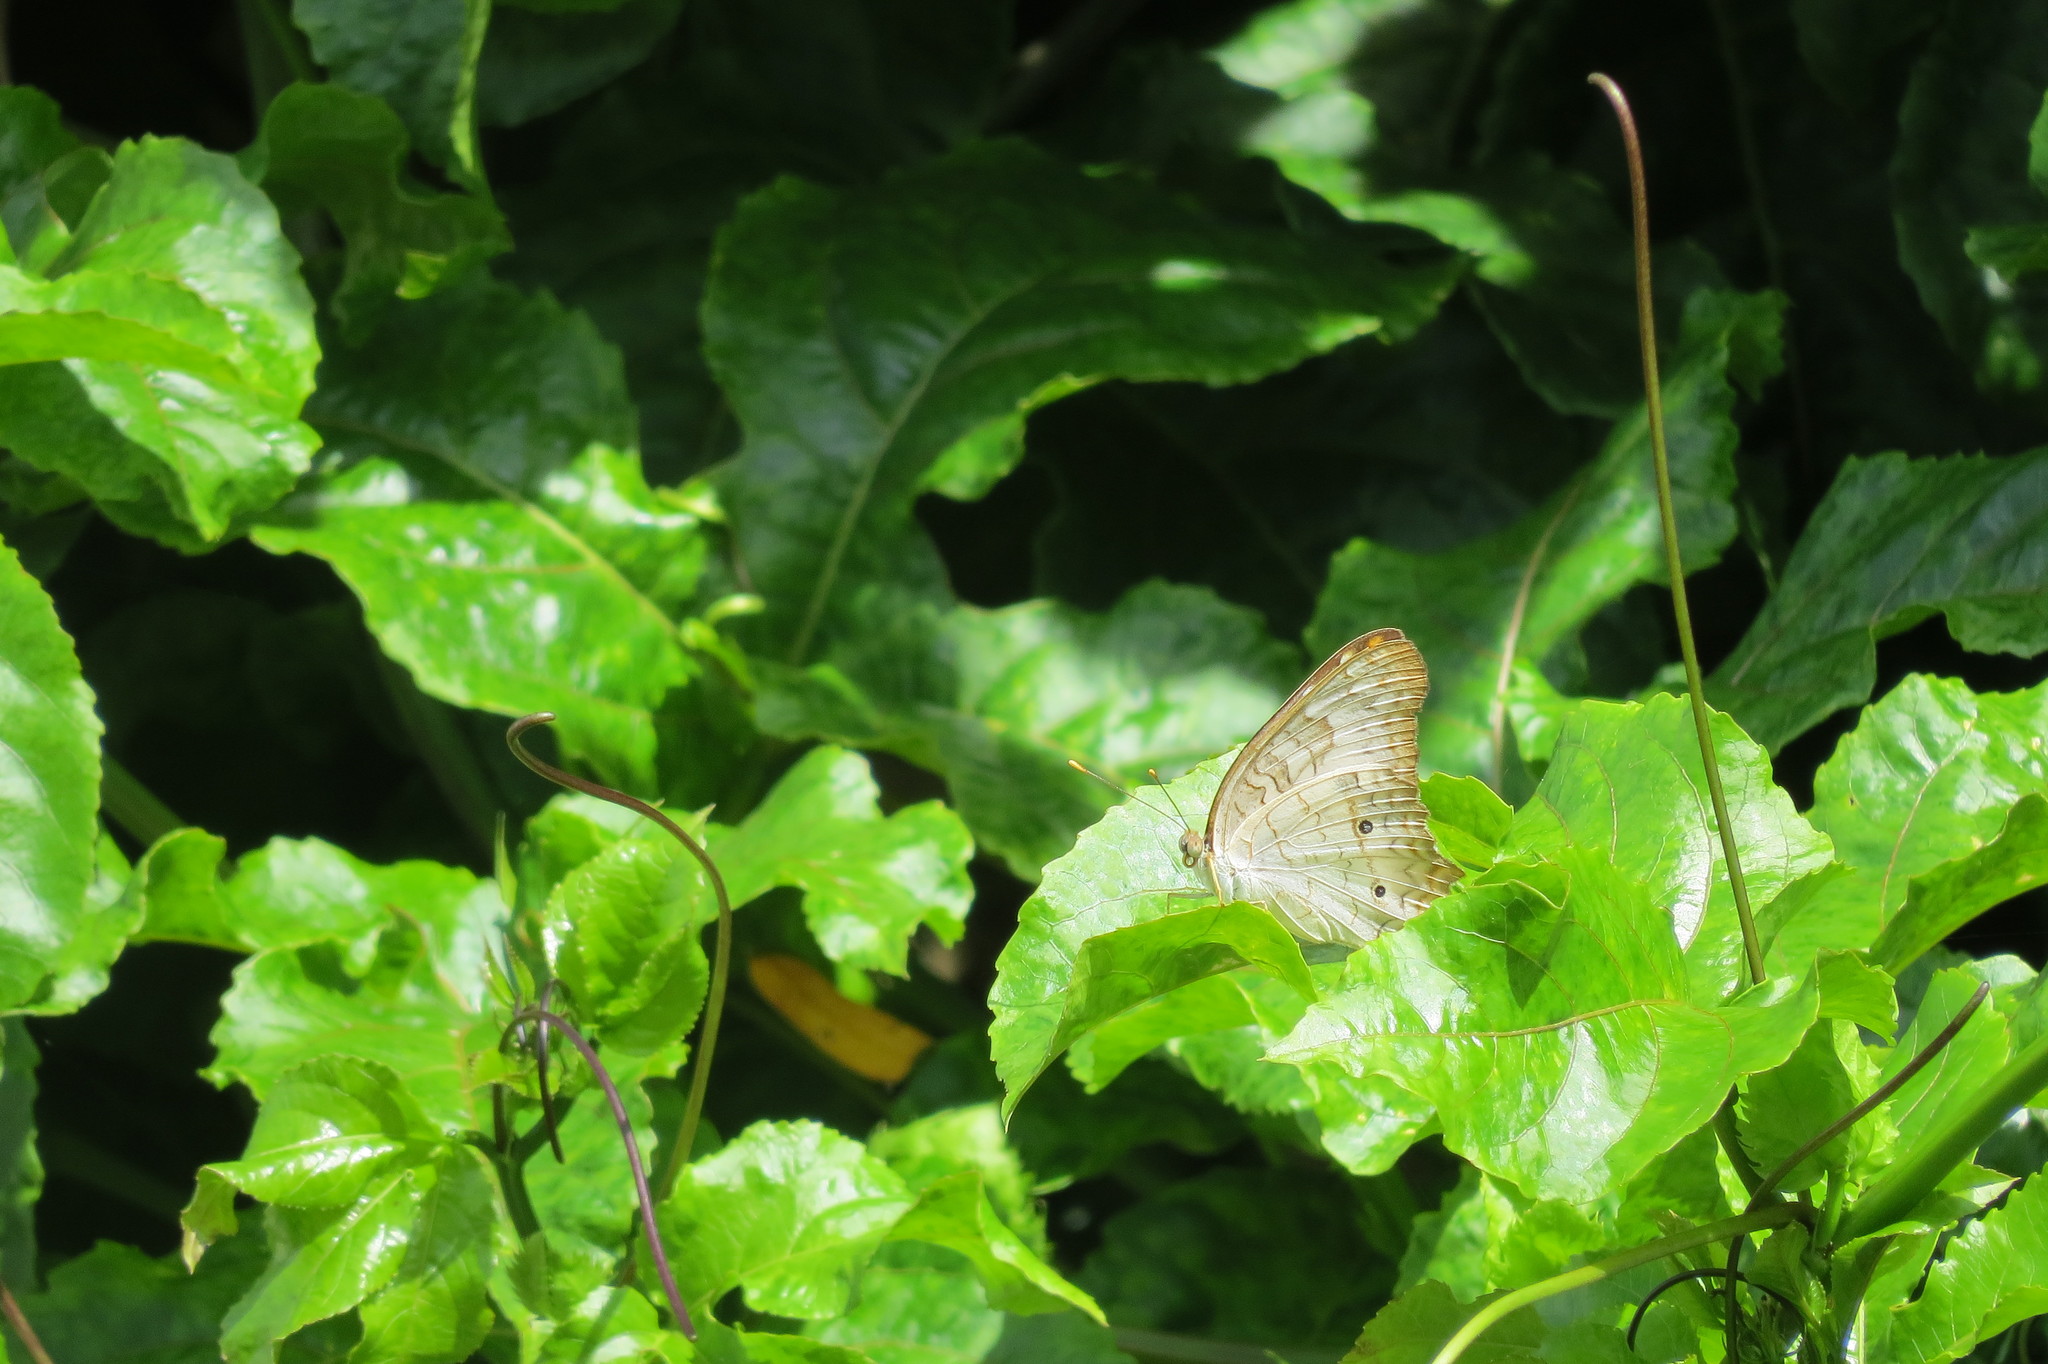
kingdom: Animalia
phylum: Arthropoda
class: Insecta
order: Lepidoptera
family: Nymphalidae
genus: Anartia
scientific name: Anartia jatrophae
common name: White peacock
